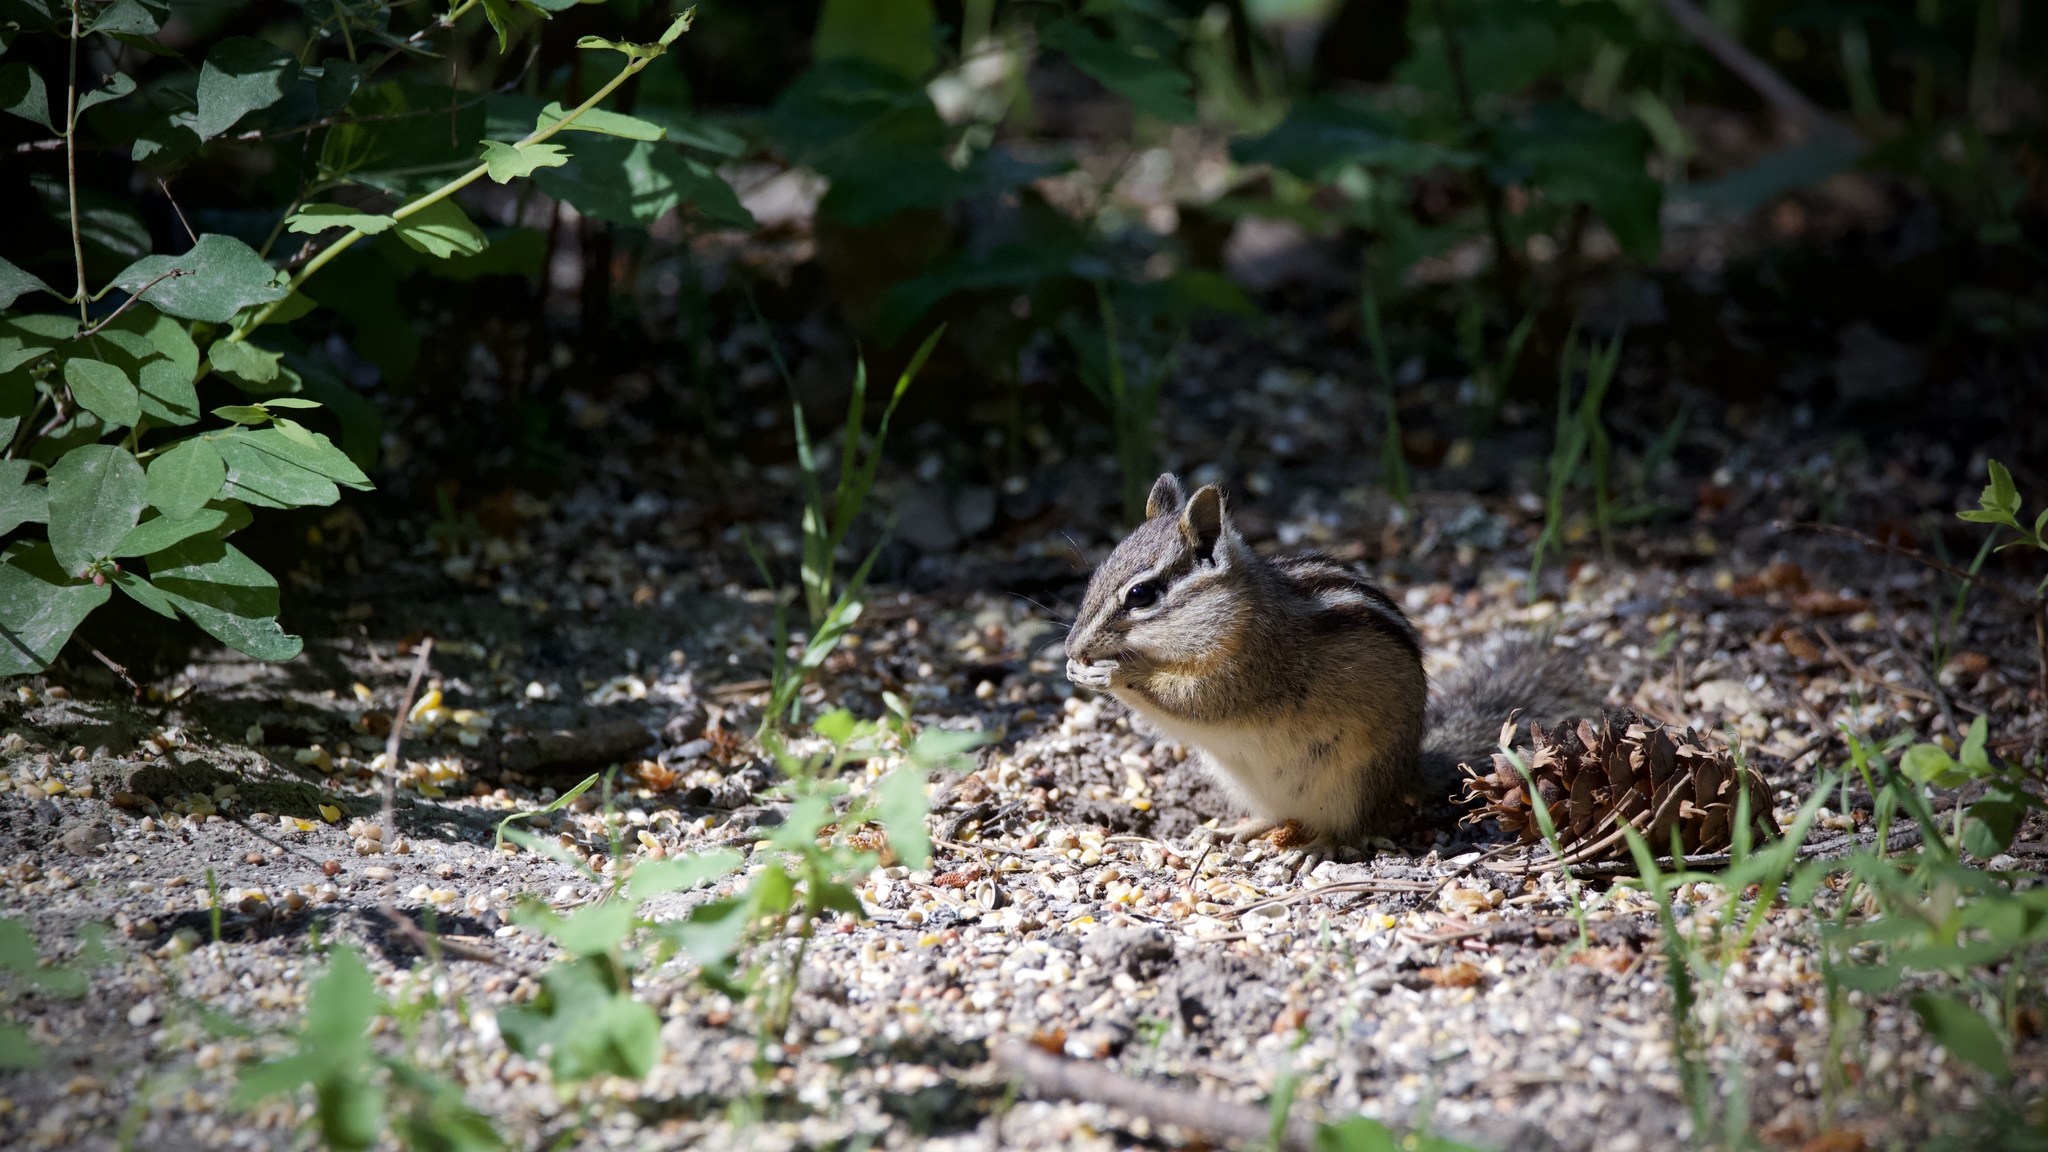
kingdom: Animalia
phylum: Chordata
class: Mammalia
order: Rodentia
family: Sciuridae
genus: Neotamias
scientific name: Neotamias
